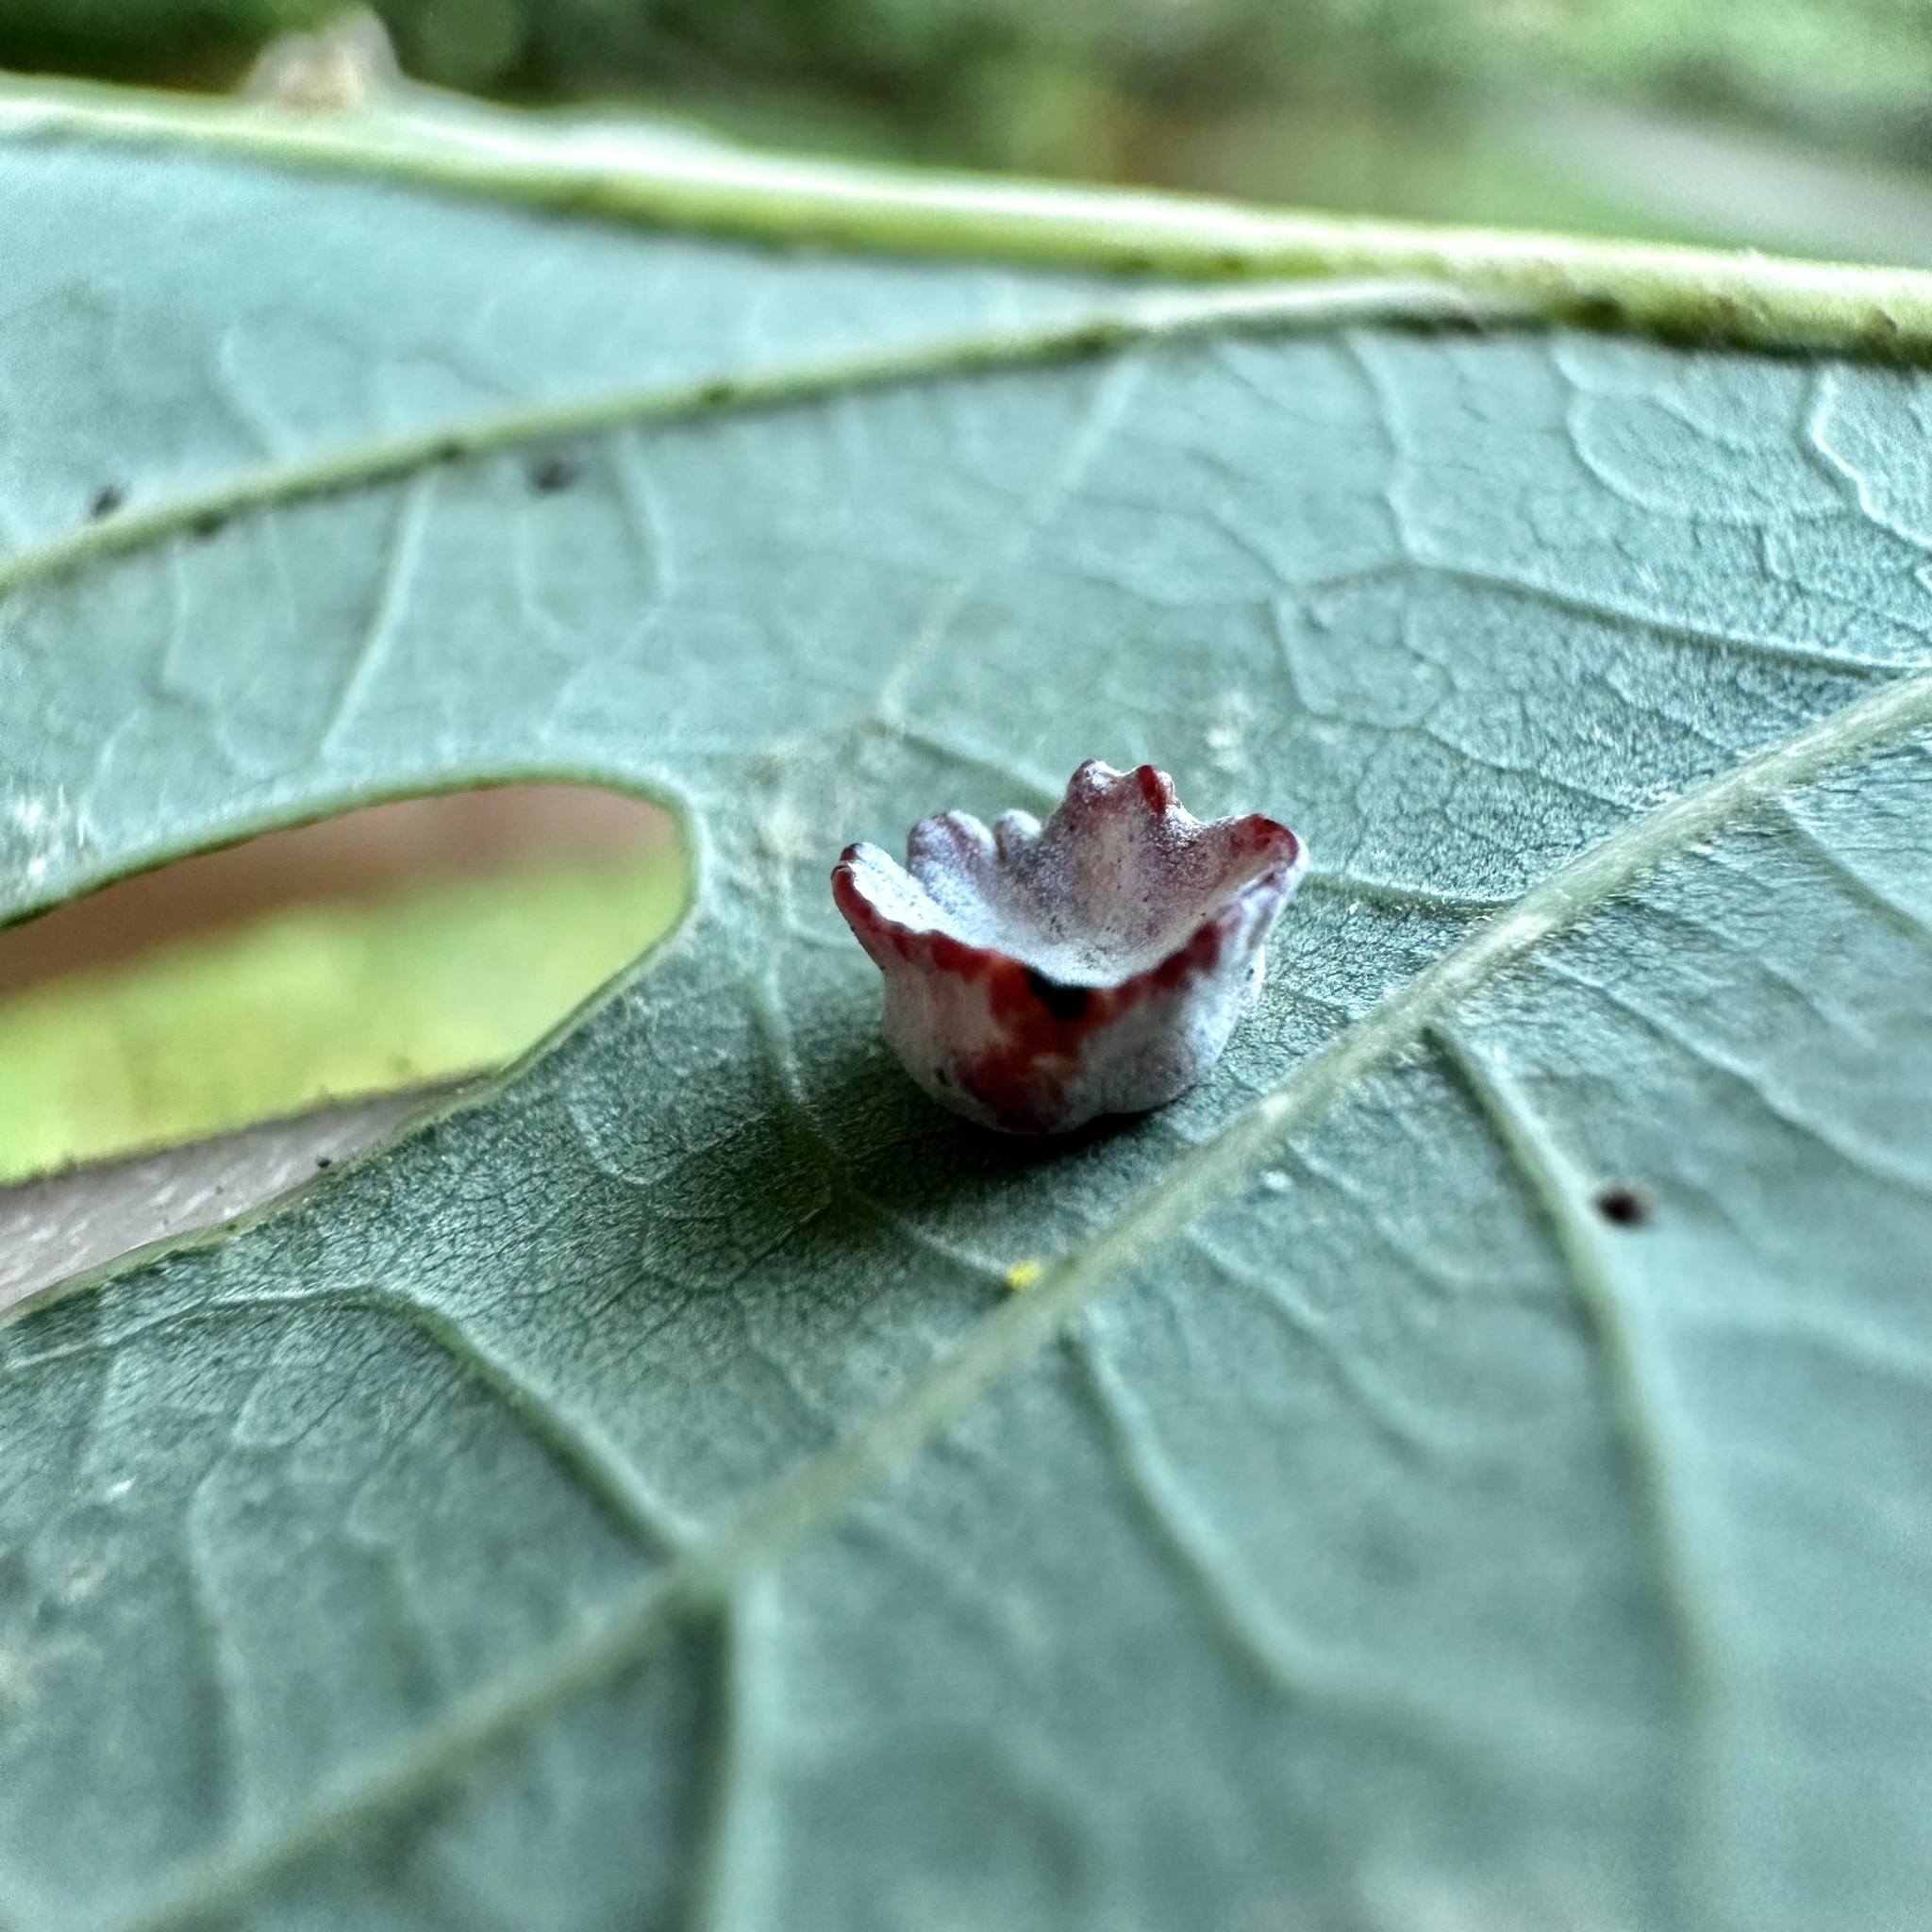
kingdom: Animalia
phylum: Arthropoda
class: Insecta
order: Hymenoptera
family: Cynipidae
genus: Phylloteras
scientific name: Phylloteras poculum
